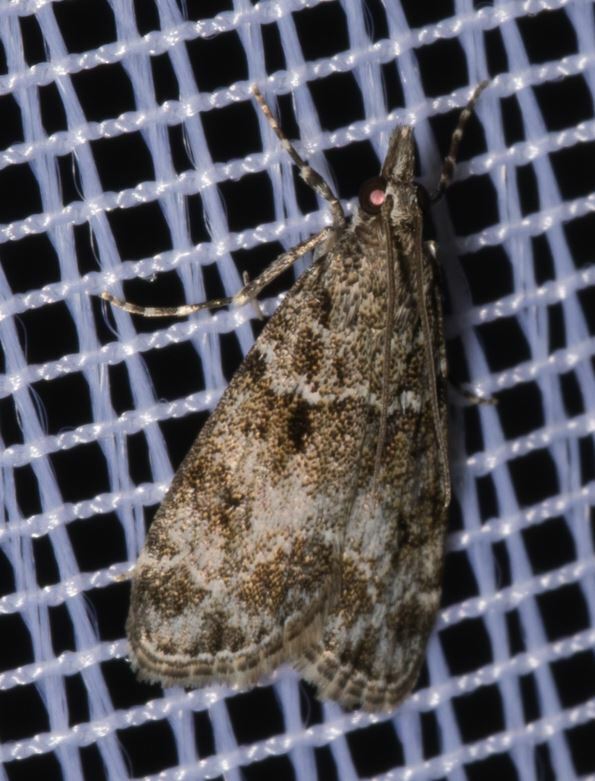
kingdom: Animalia
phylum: Arthropoda
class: Insecta
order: Lepidoptera
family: Crambidae
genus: Eudonia
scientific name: Eudonia mercurella
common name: Small grey
